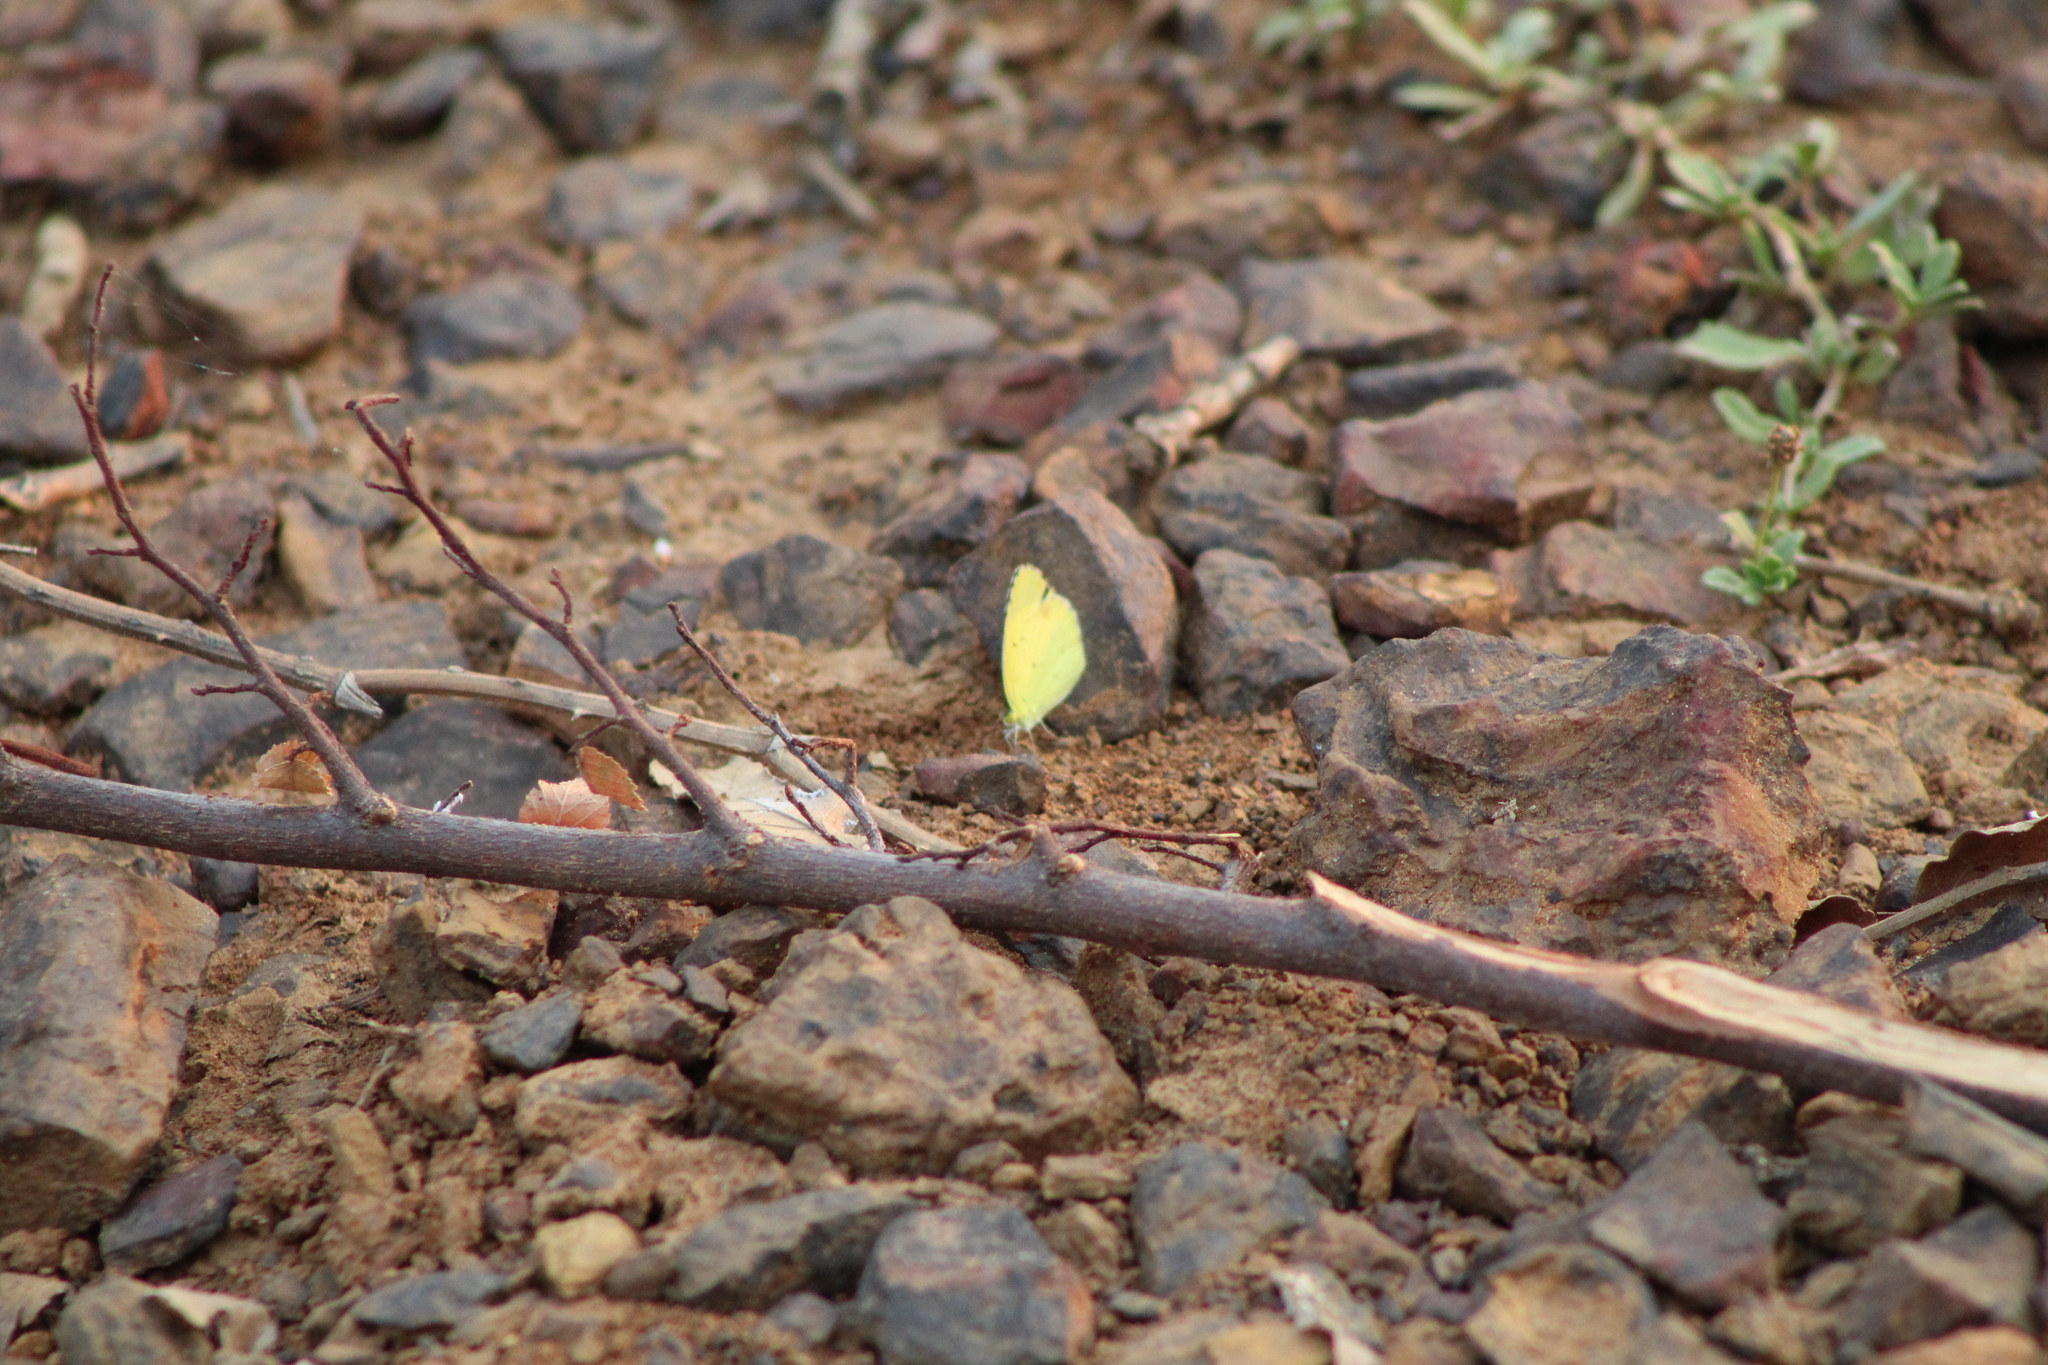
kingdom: Animalia
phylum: Arthropoda
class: Insecta
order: Lepidoptera
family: Pieridae
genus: Pyrisitia
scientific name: Pyrisitia lisa
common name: Little yellow
